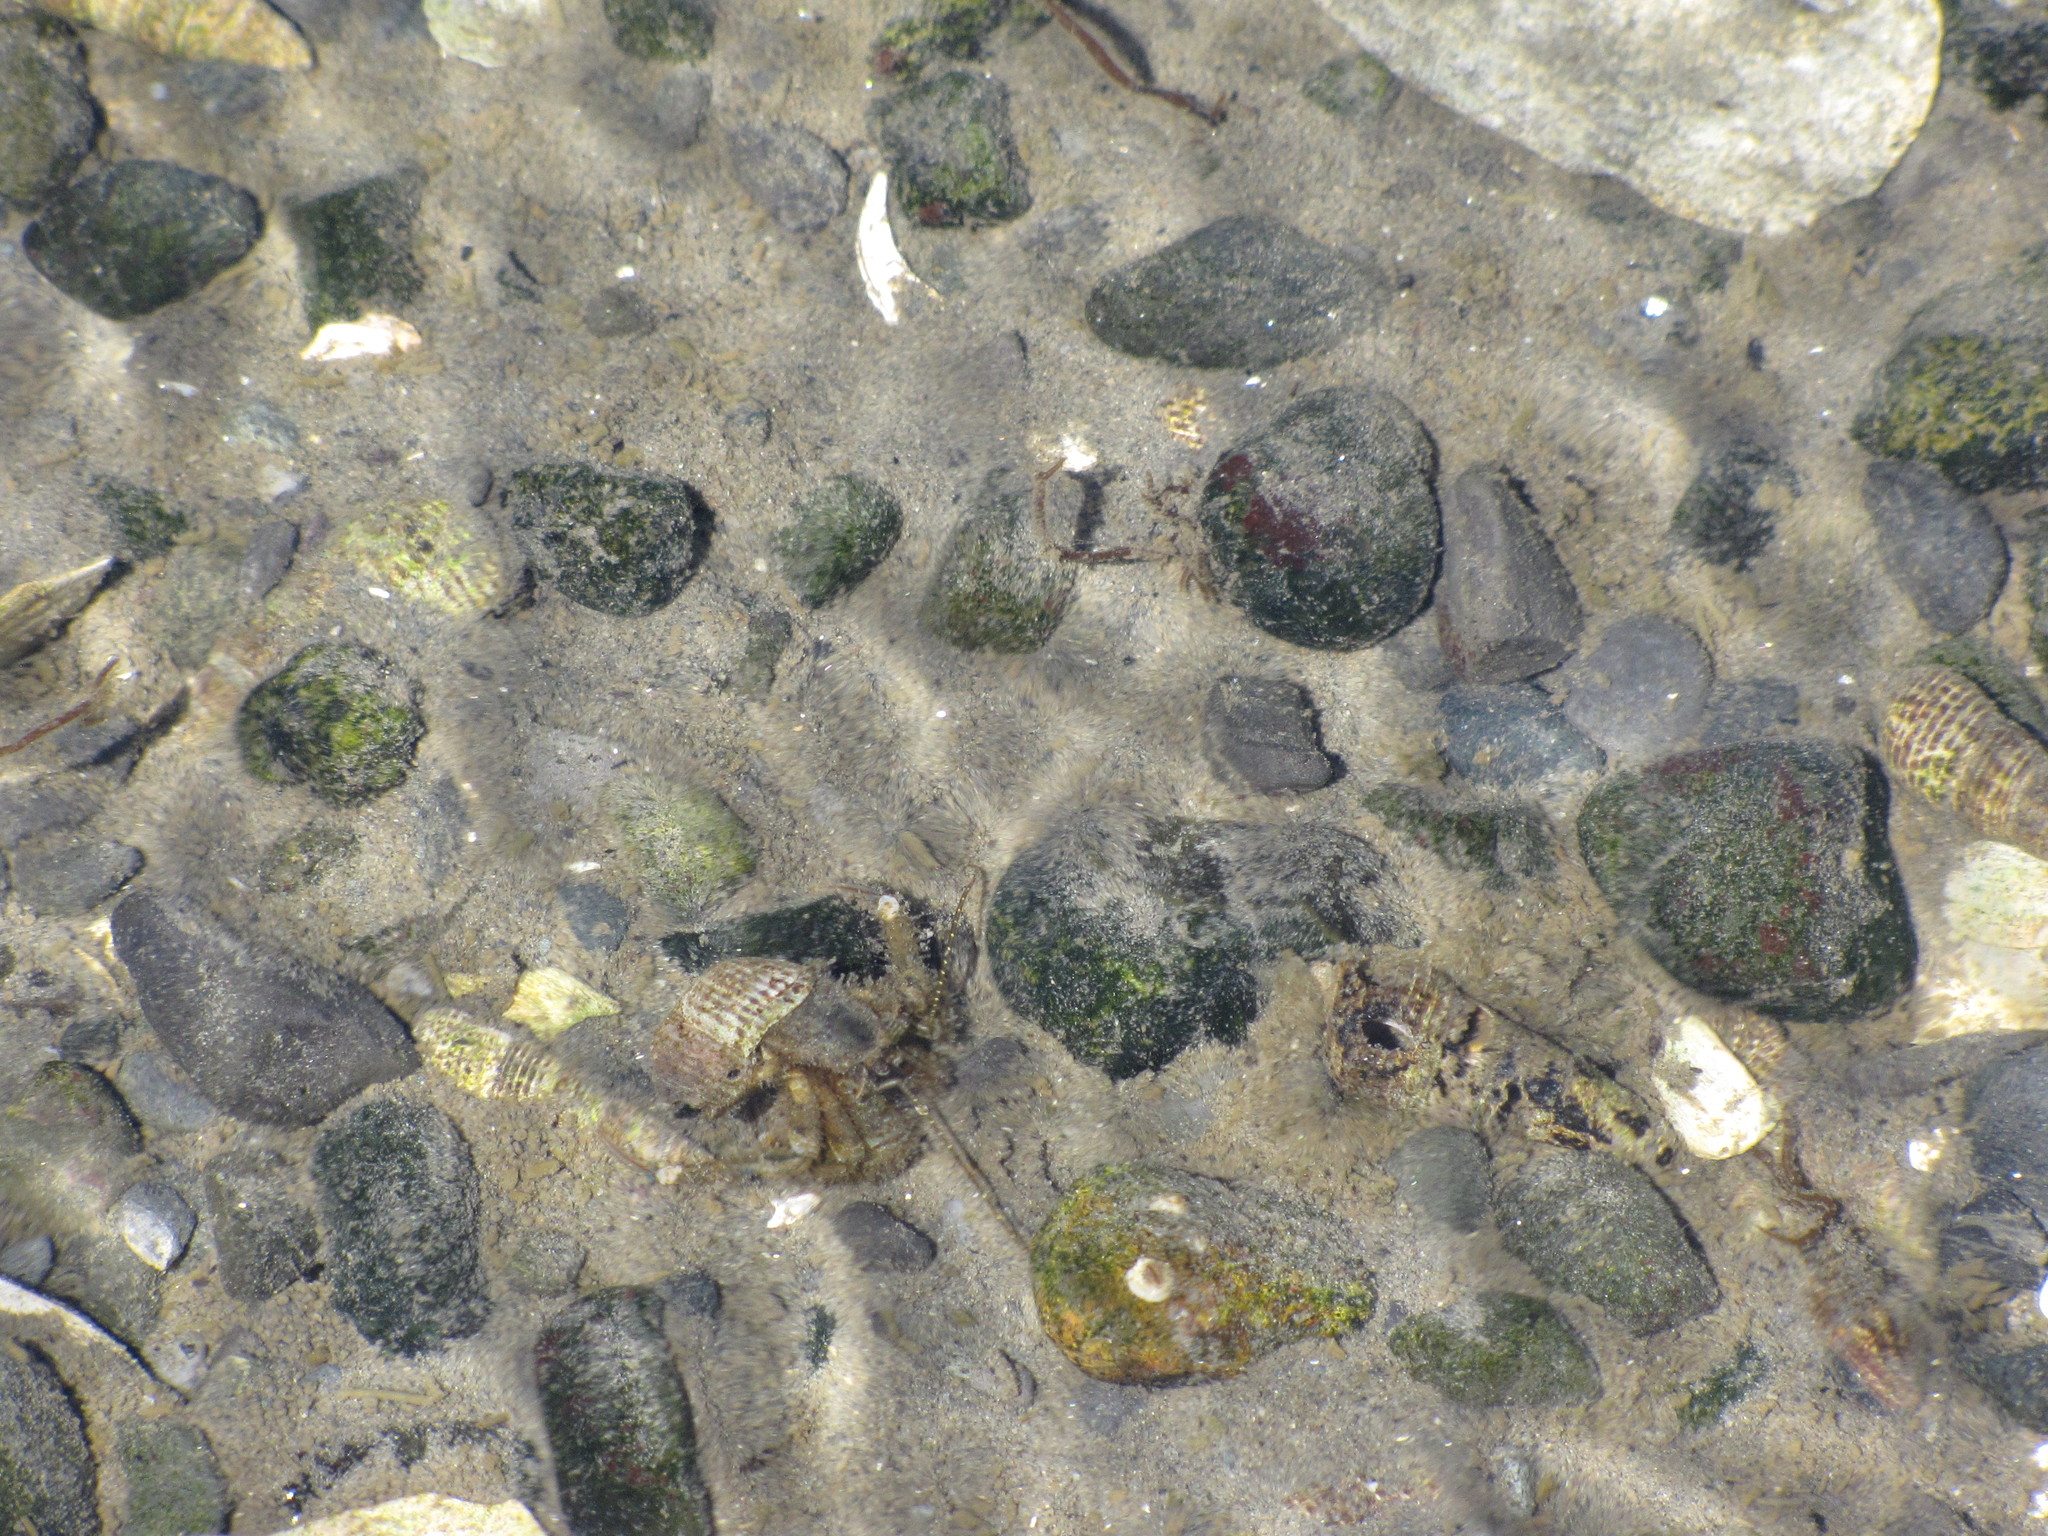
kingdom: Animalia
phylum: Arthropoda
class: Malacostraca
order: Decapoda
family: Paguridae
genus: Pagurus
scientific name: Pagurus hirsutiusculus
